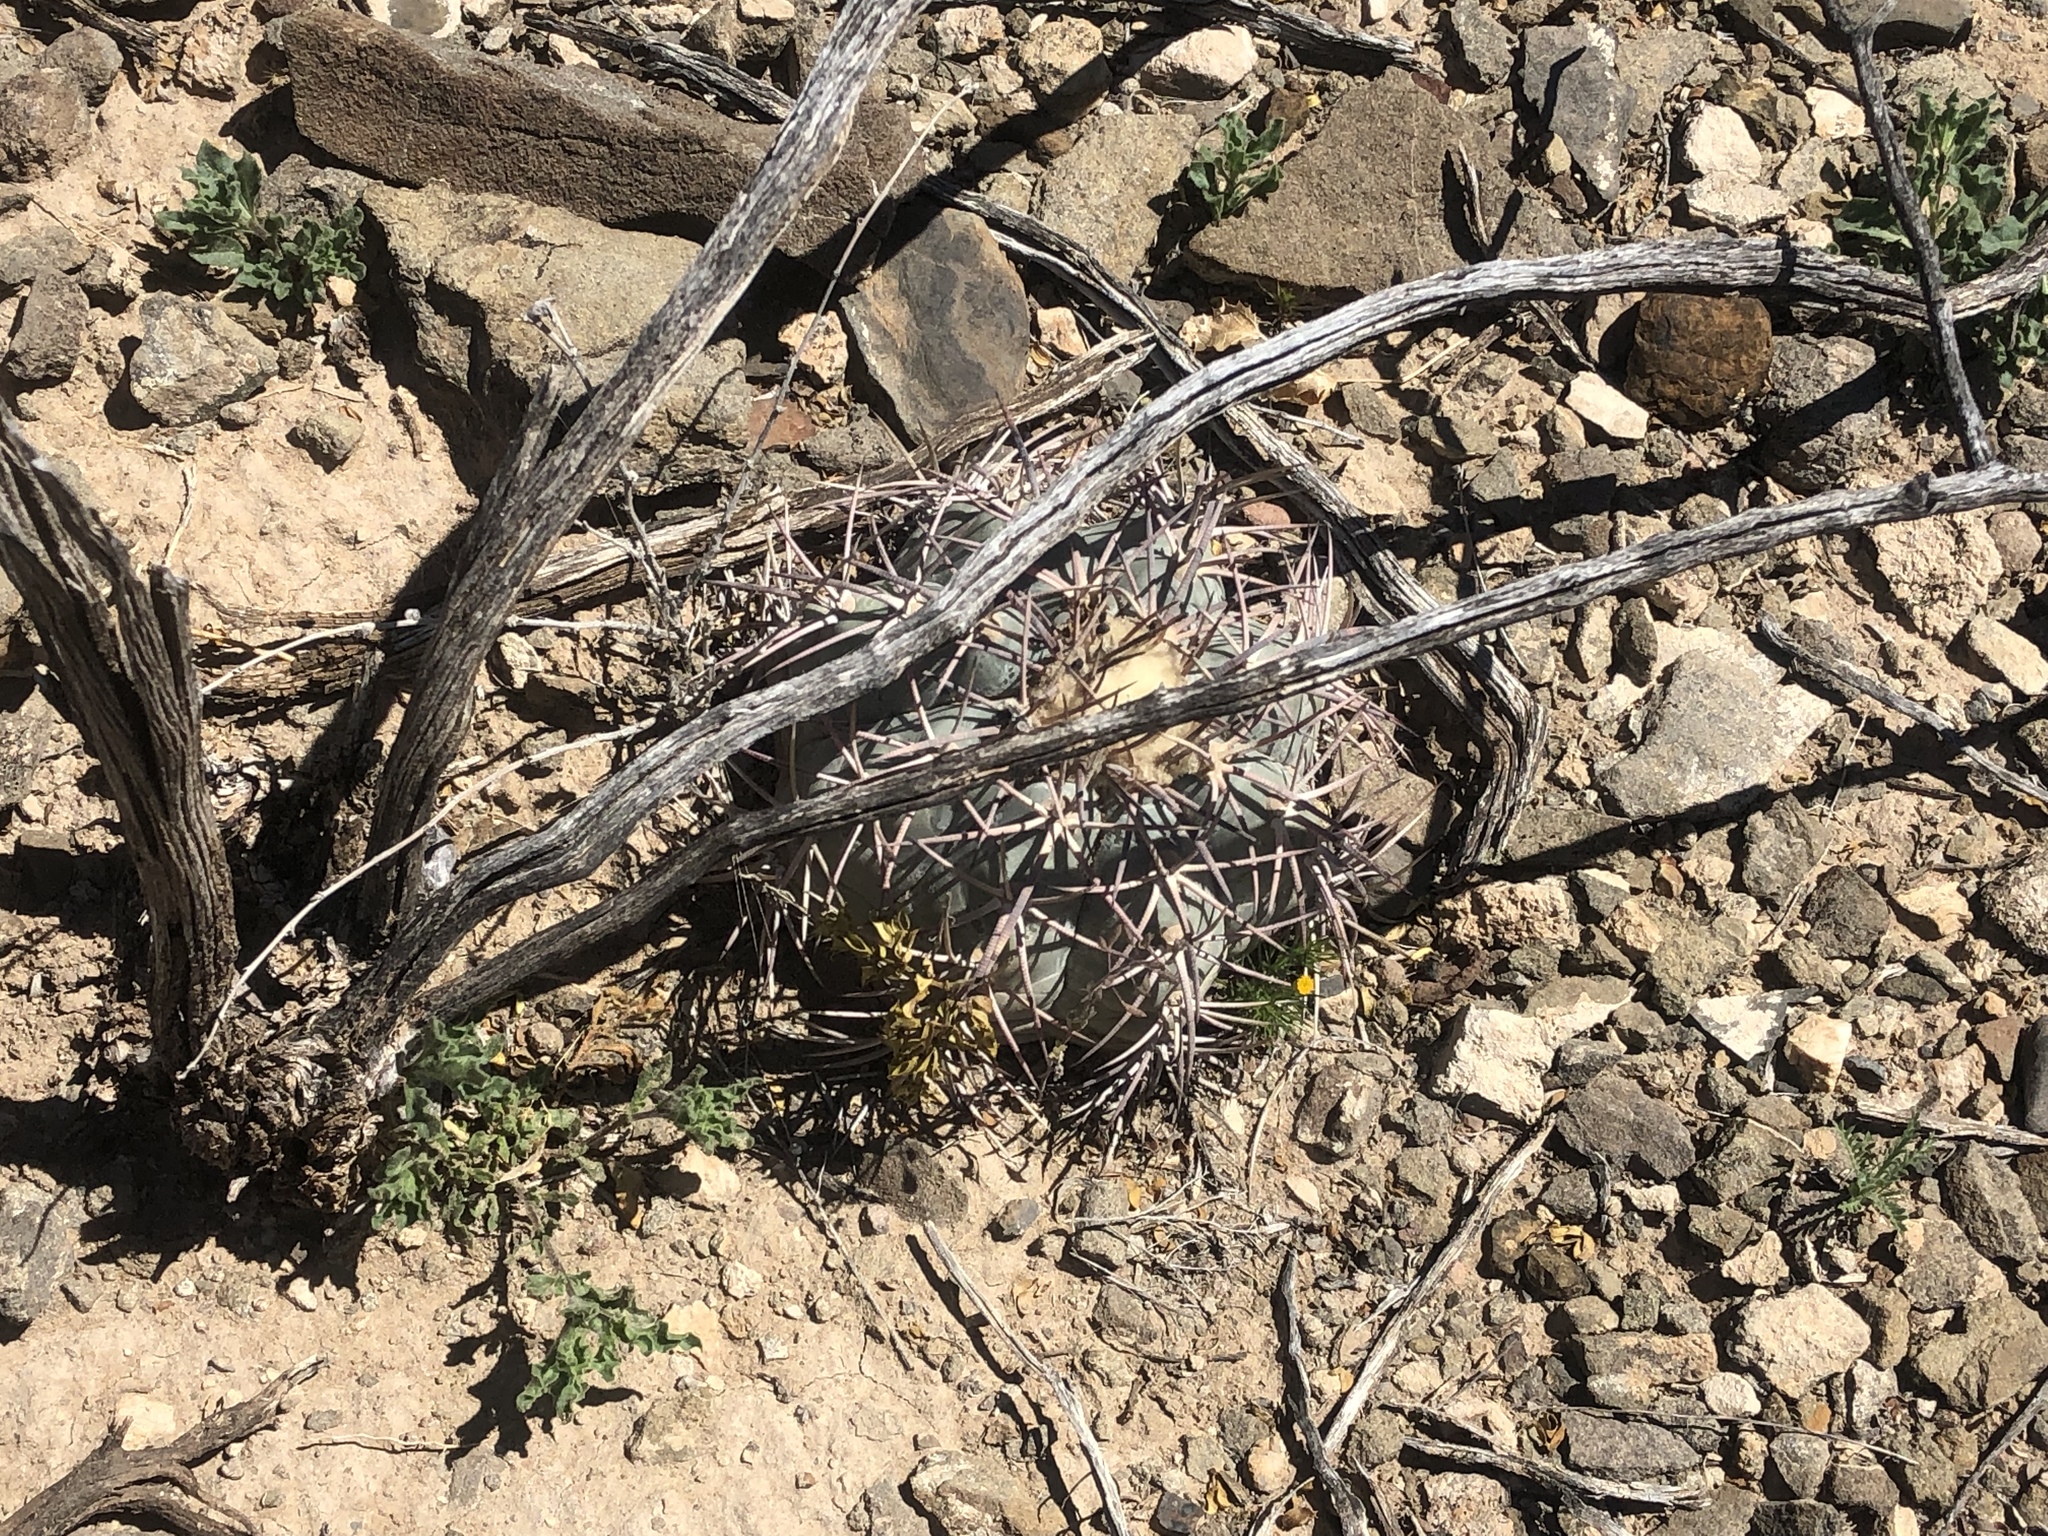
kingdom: Plantae
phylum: Tracheophyta
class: Magnoliopsida
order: Caryophyllales
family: Cactaceae
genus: Echinocactus
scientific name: Echinocactus horizonthalonius
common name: Devilshead
